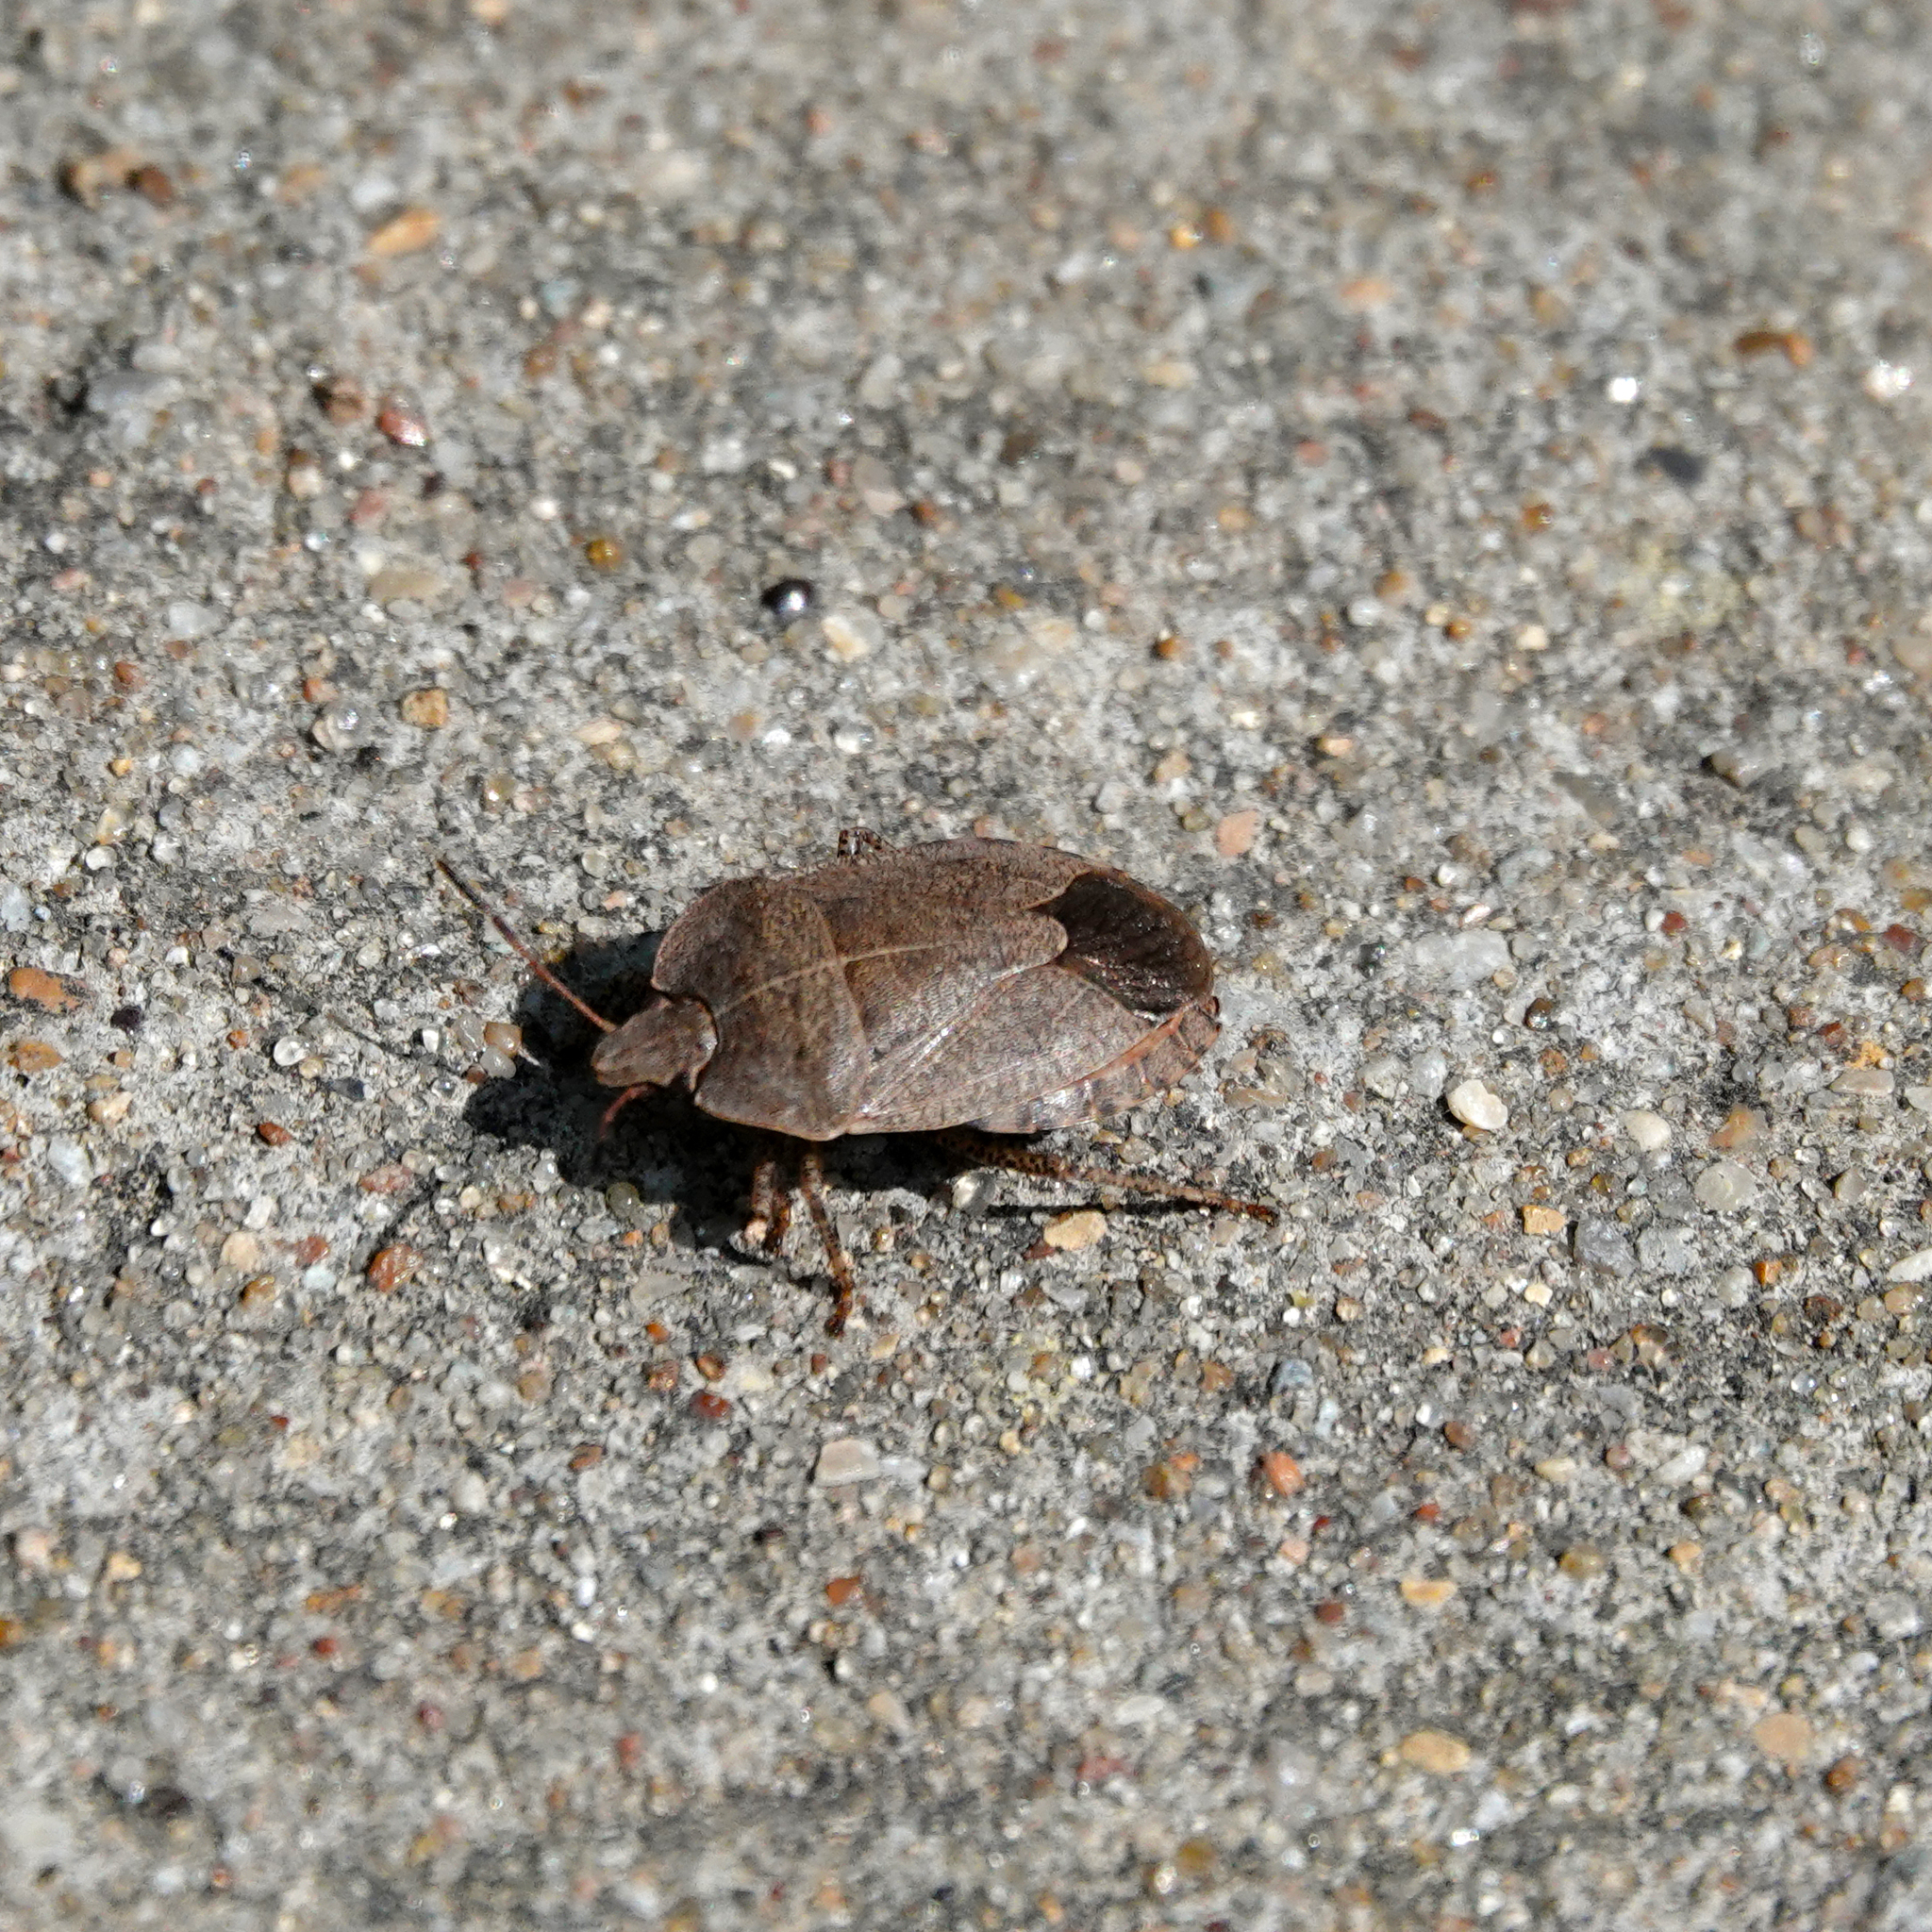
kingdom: Animalia
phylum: Arthropoda
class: Insecta
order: Hemiptera
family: Pentatomidae
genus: Menecles
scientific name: Menecles insertus
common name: Elf shoe stink bug
